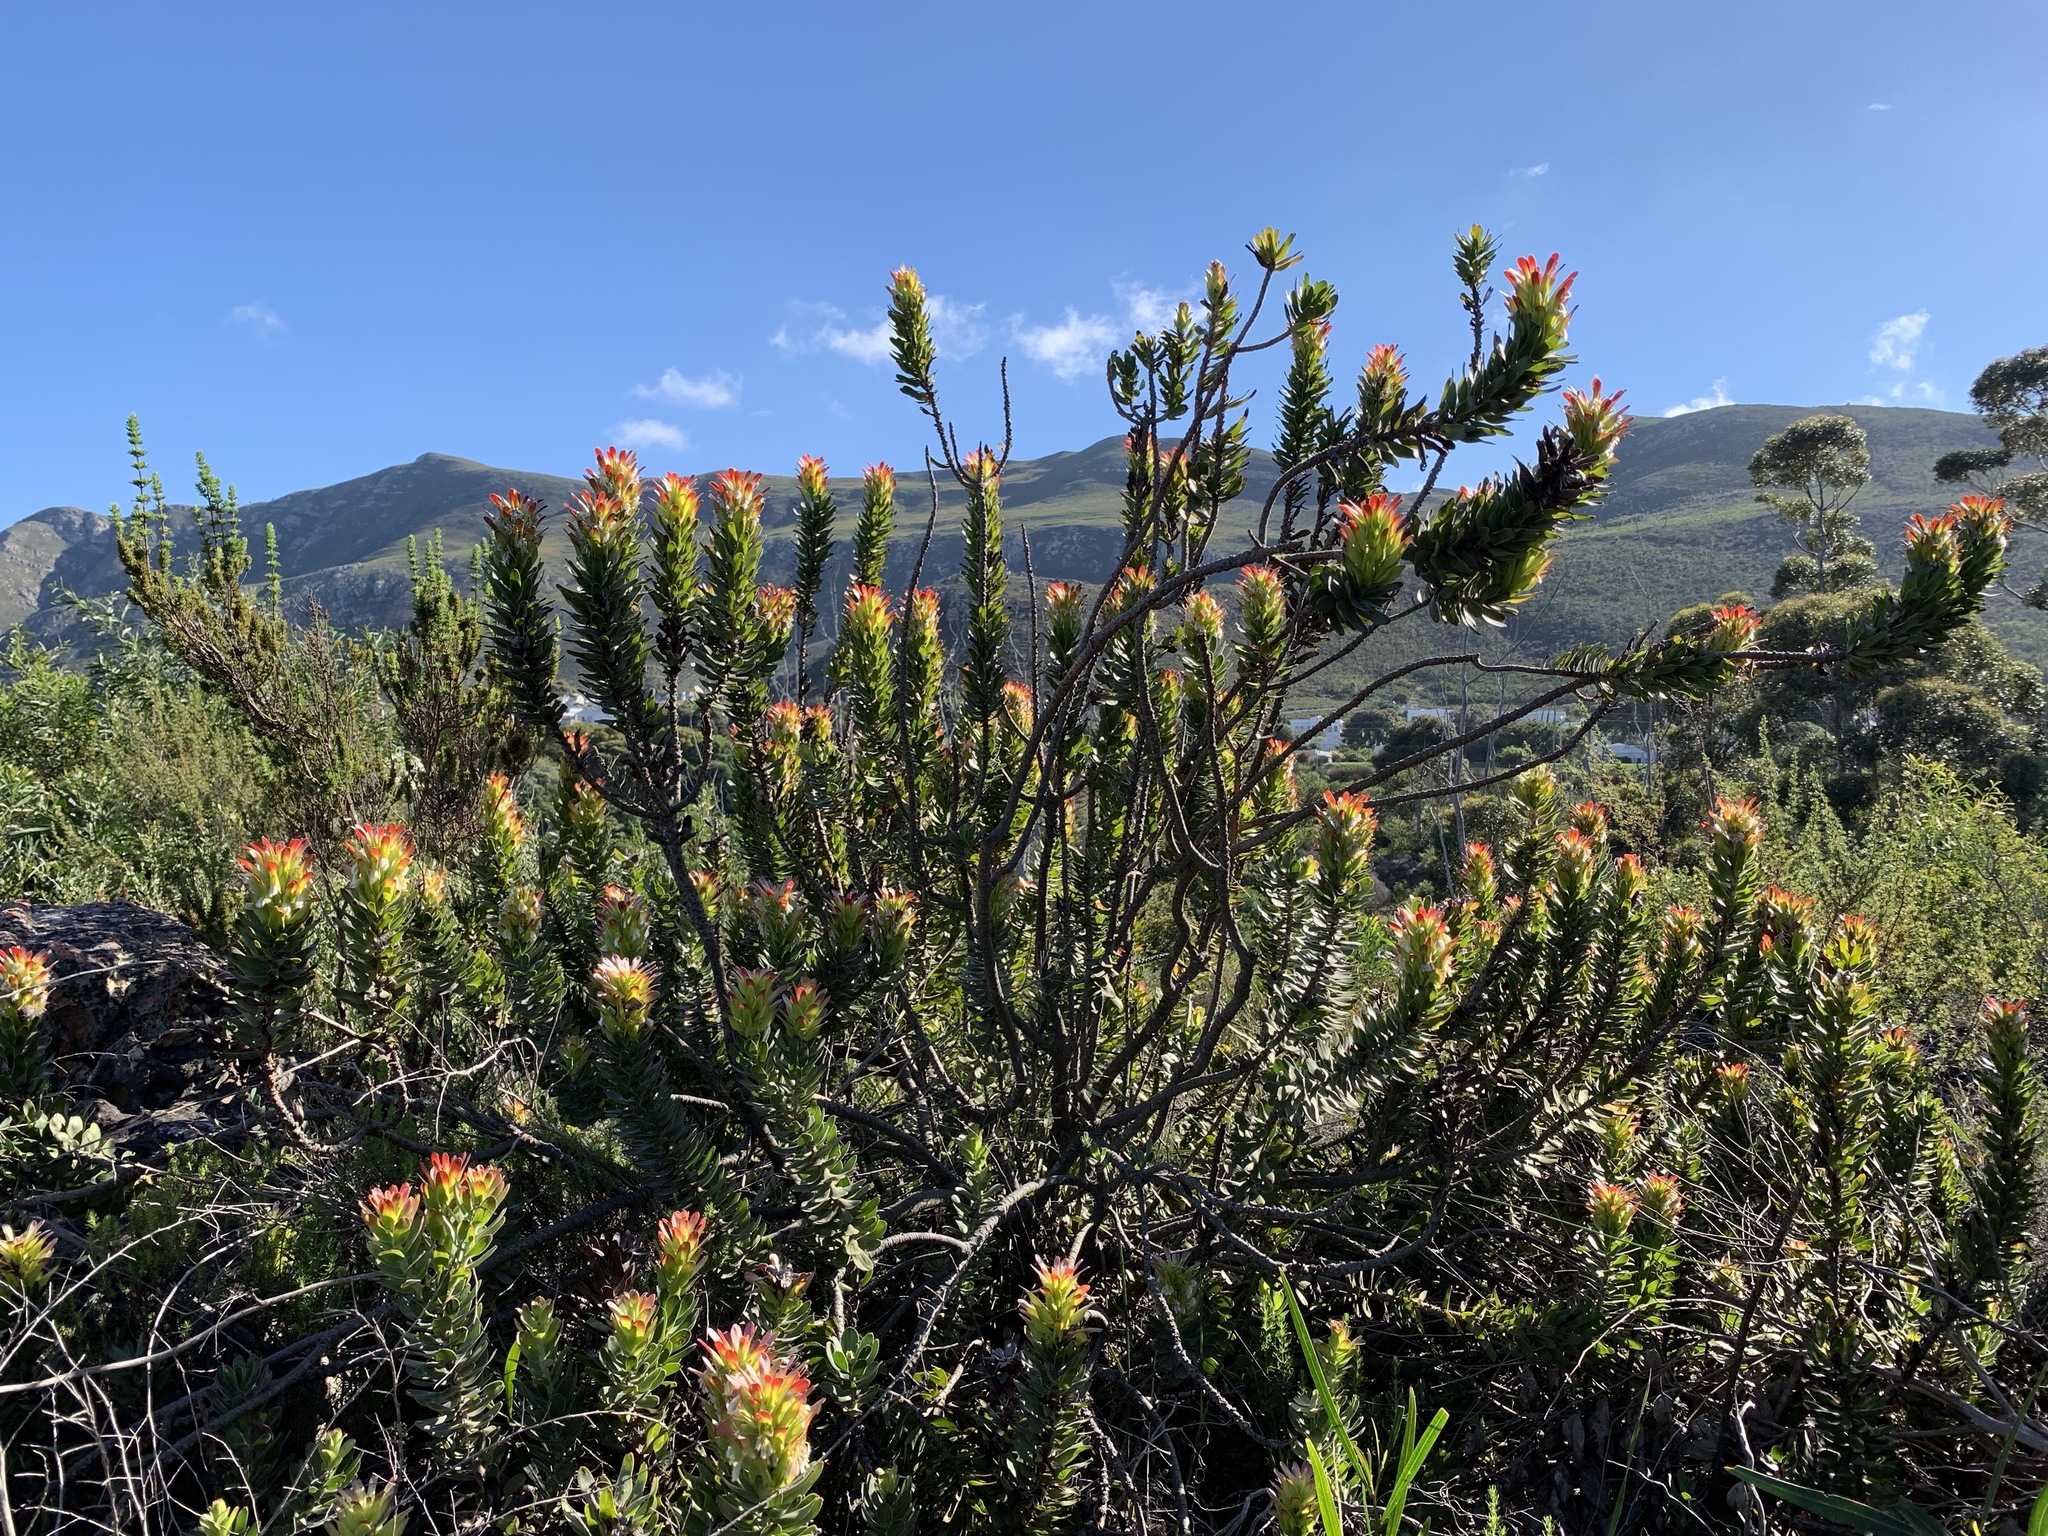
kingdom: Plantae
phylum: Tracheophyta
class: Magnoliopsida
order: Proteales
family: Proteaceae
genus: Mimetes
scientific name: Mimetes cucullatus
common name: Common pagoda
